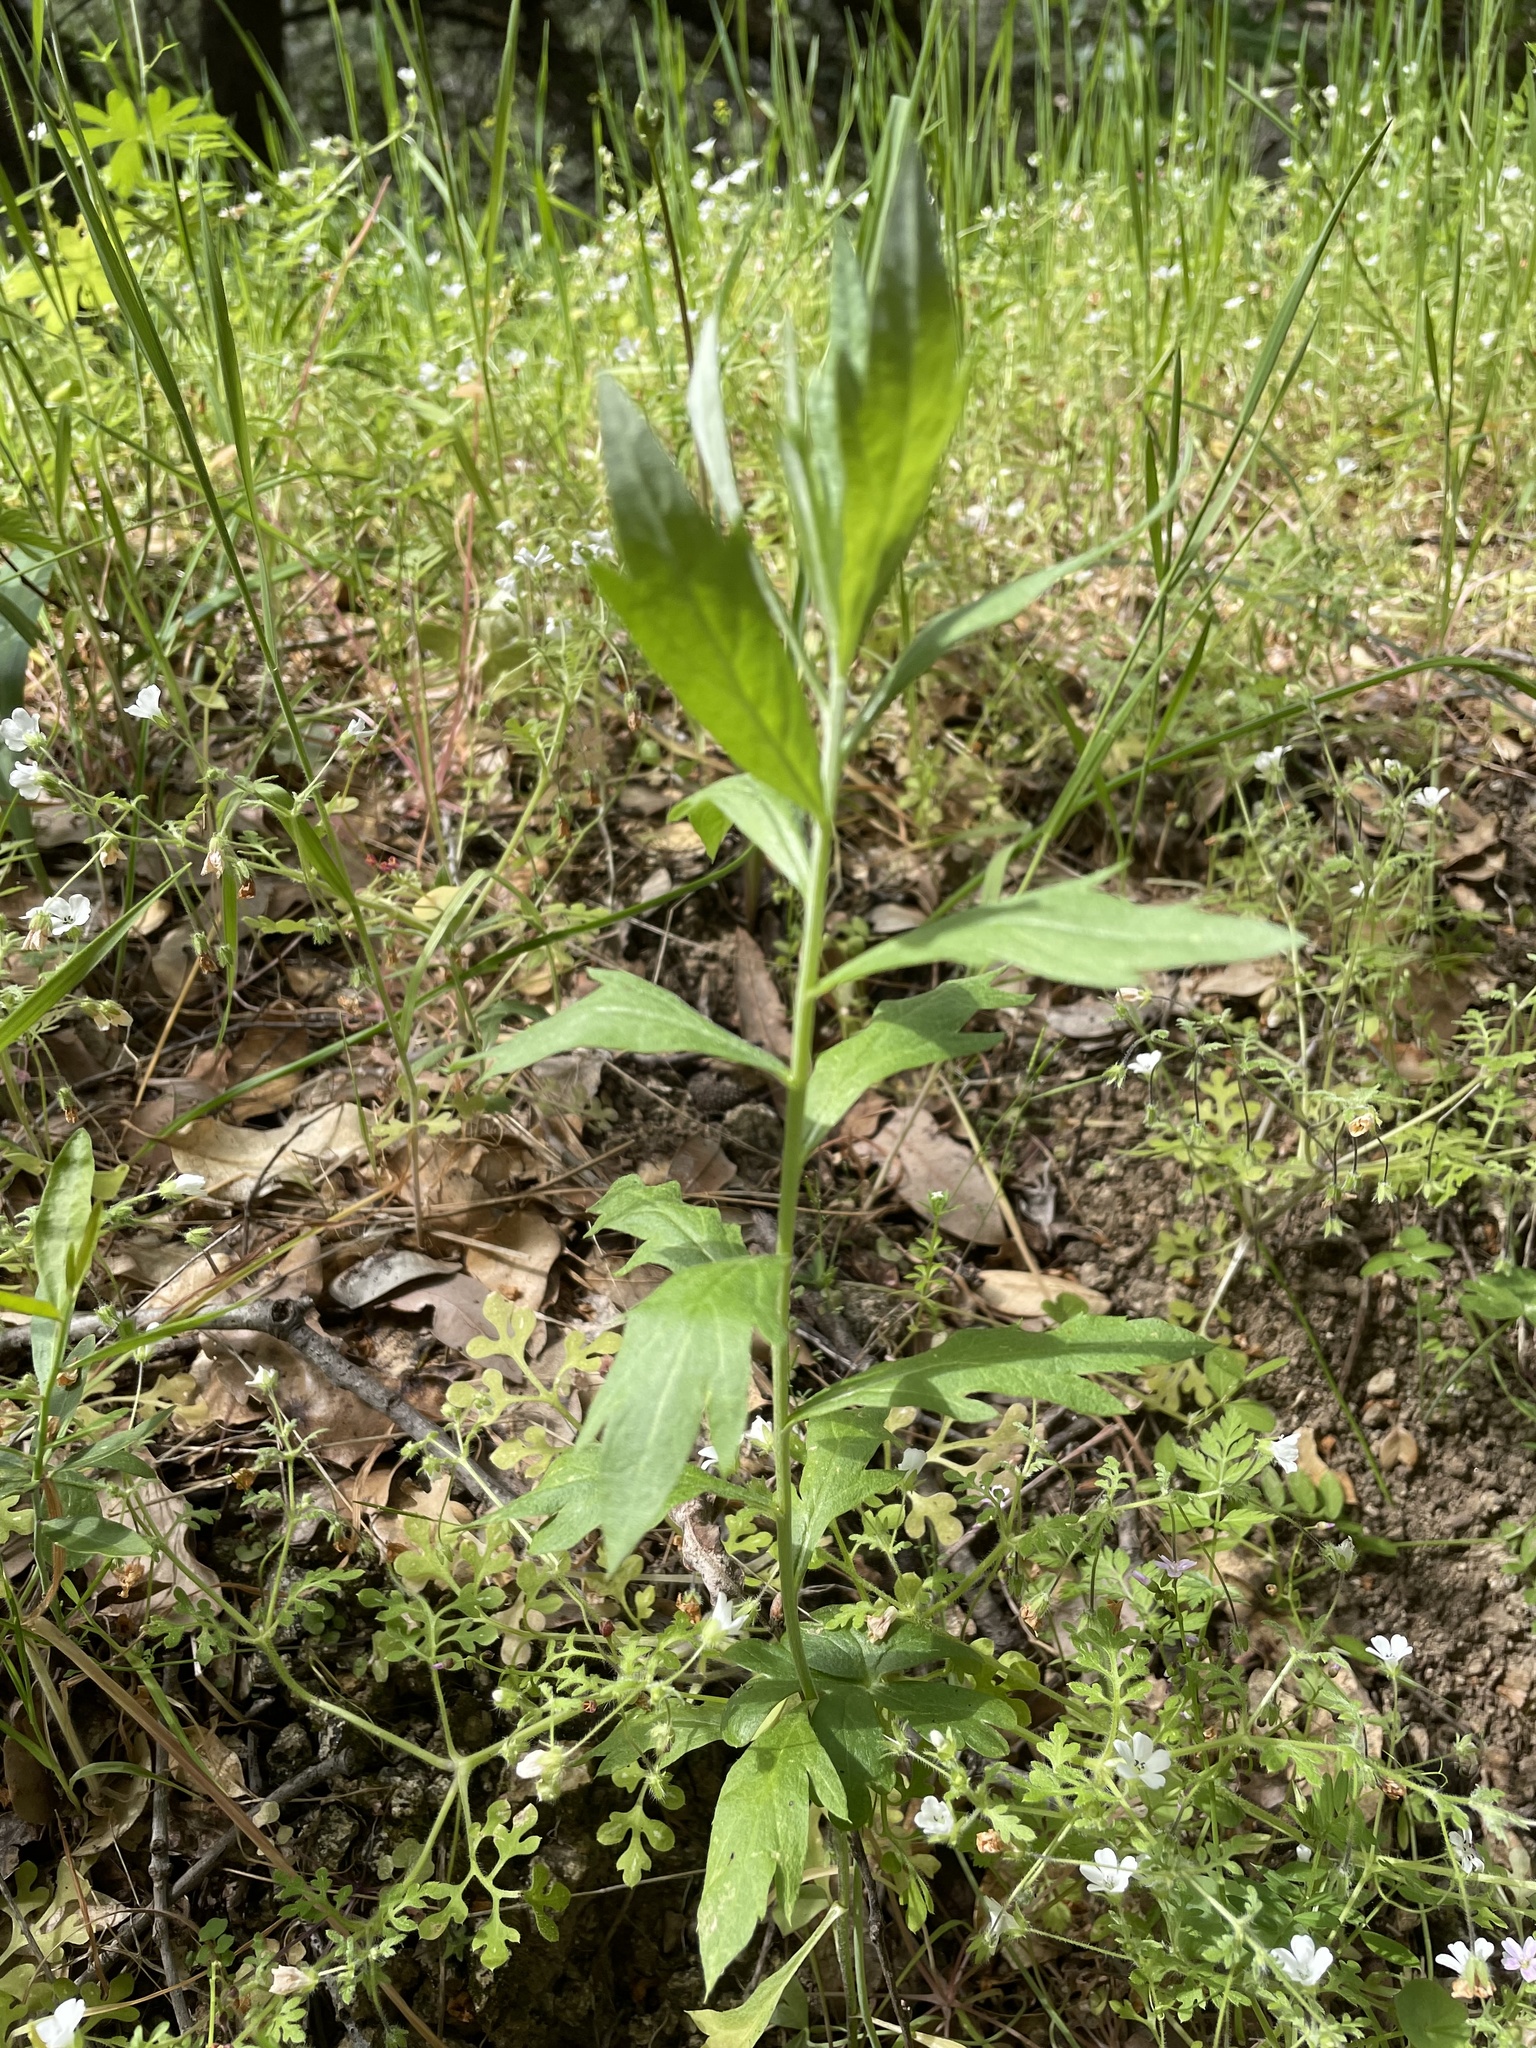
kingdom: Plantae
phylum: Tracheophyta
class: Magnoliopsida
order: Asterales
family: Asteraceae
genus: Artemisia
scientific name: Artemisia douglasiana
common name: Northwest mugwort
